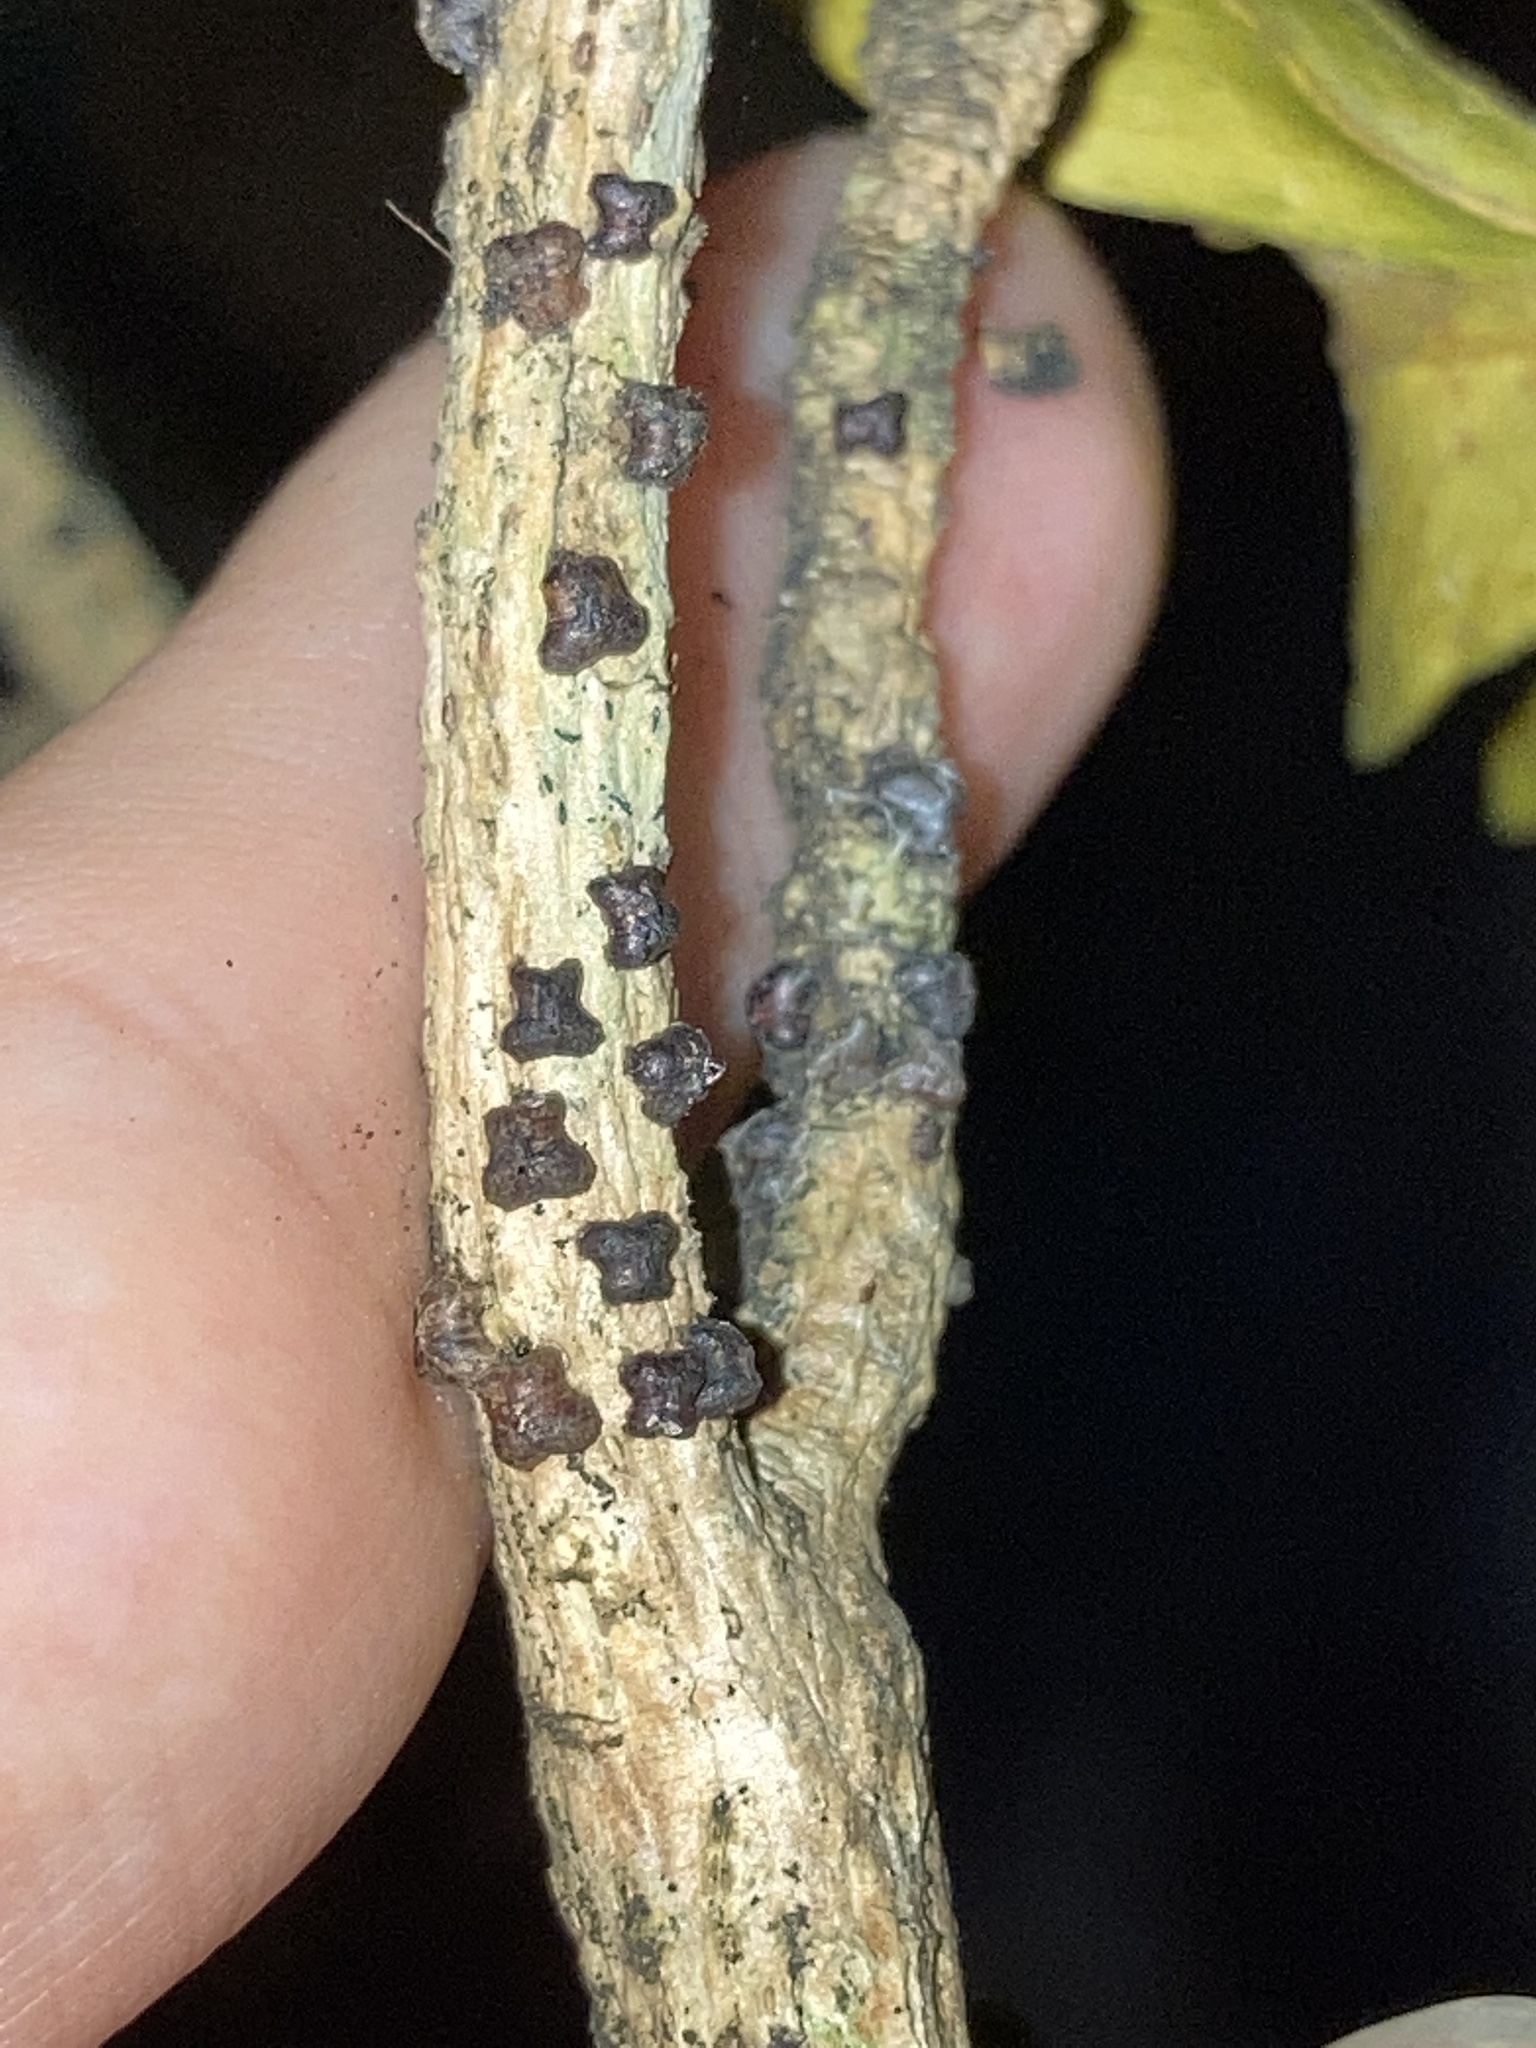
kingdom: Animalia
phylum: Arthropoda
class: Insecta
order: Hemiptera
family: Kerriidae
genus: Paratachardina
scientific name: Paratachardina pseudolobata
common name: Lobate lac scale
